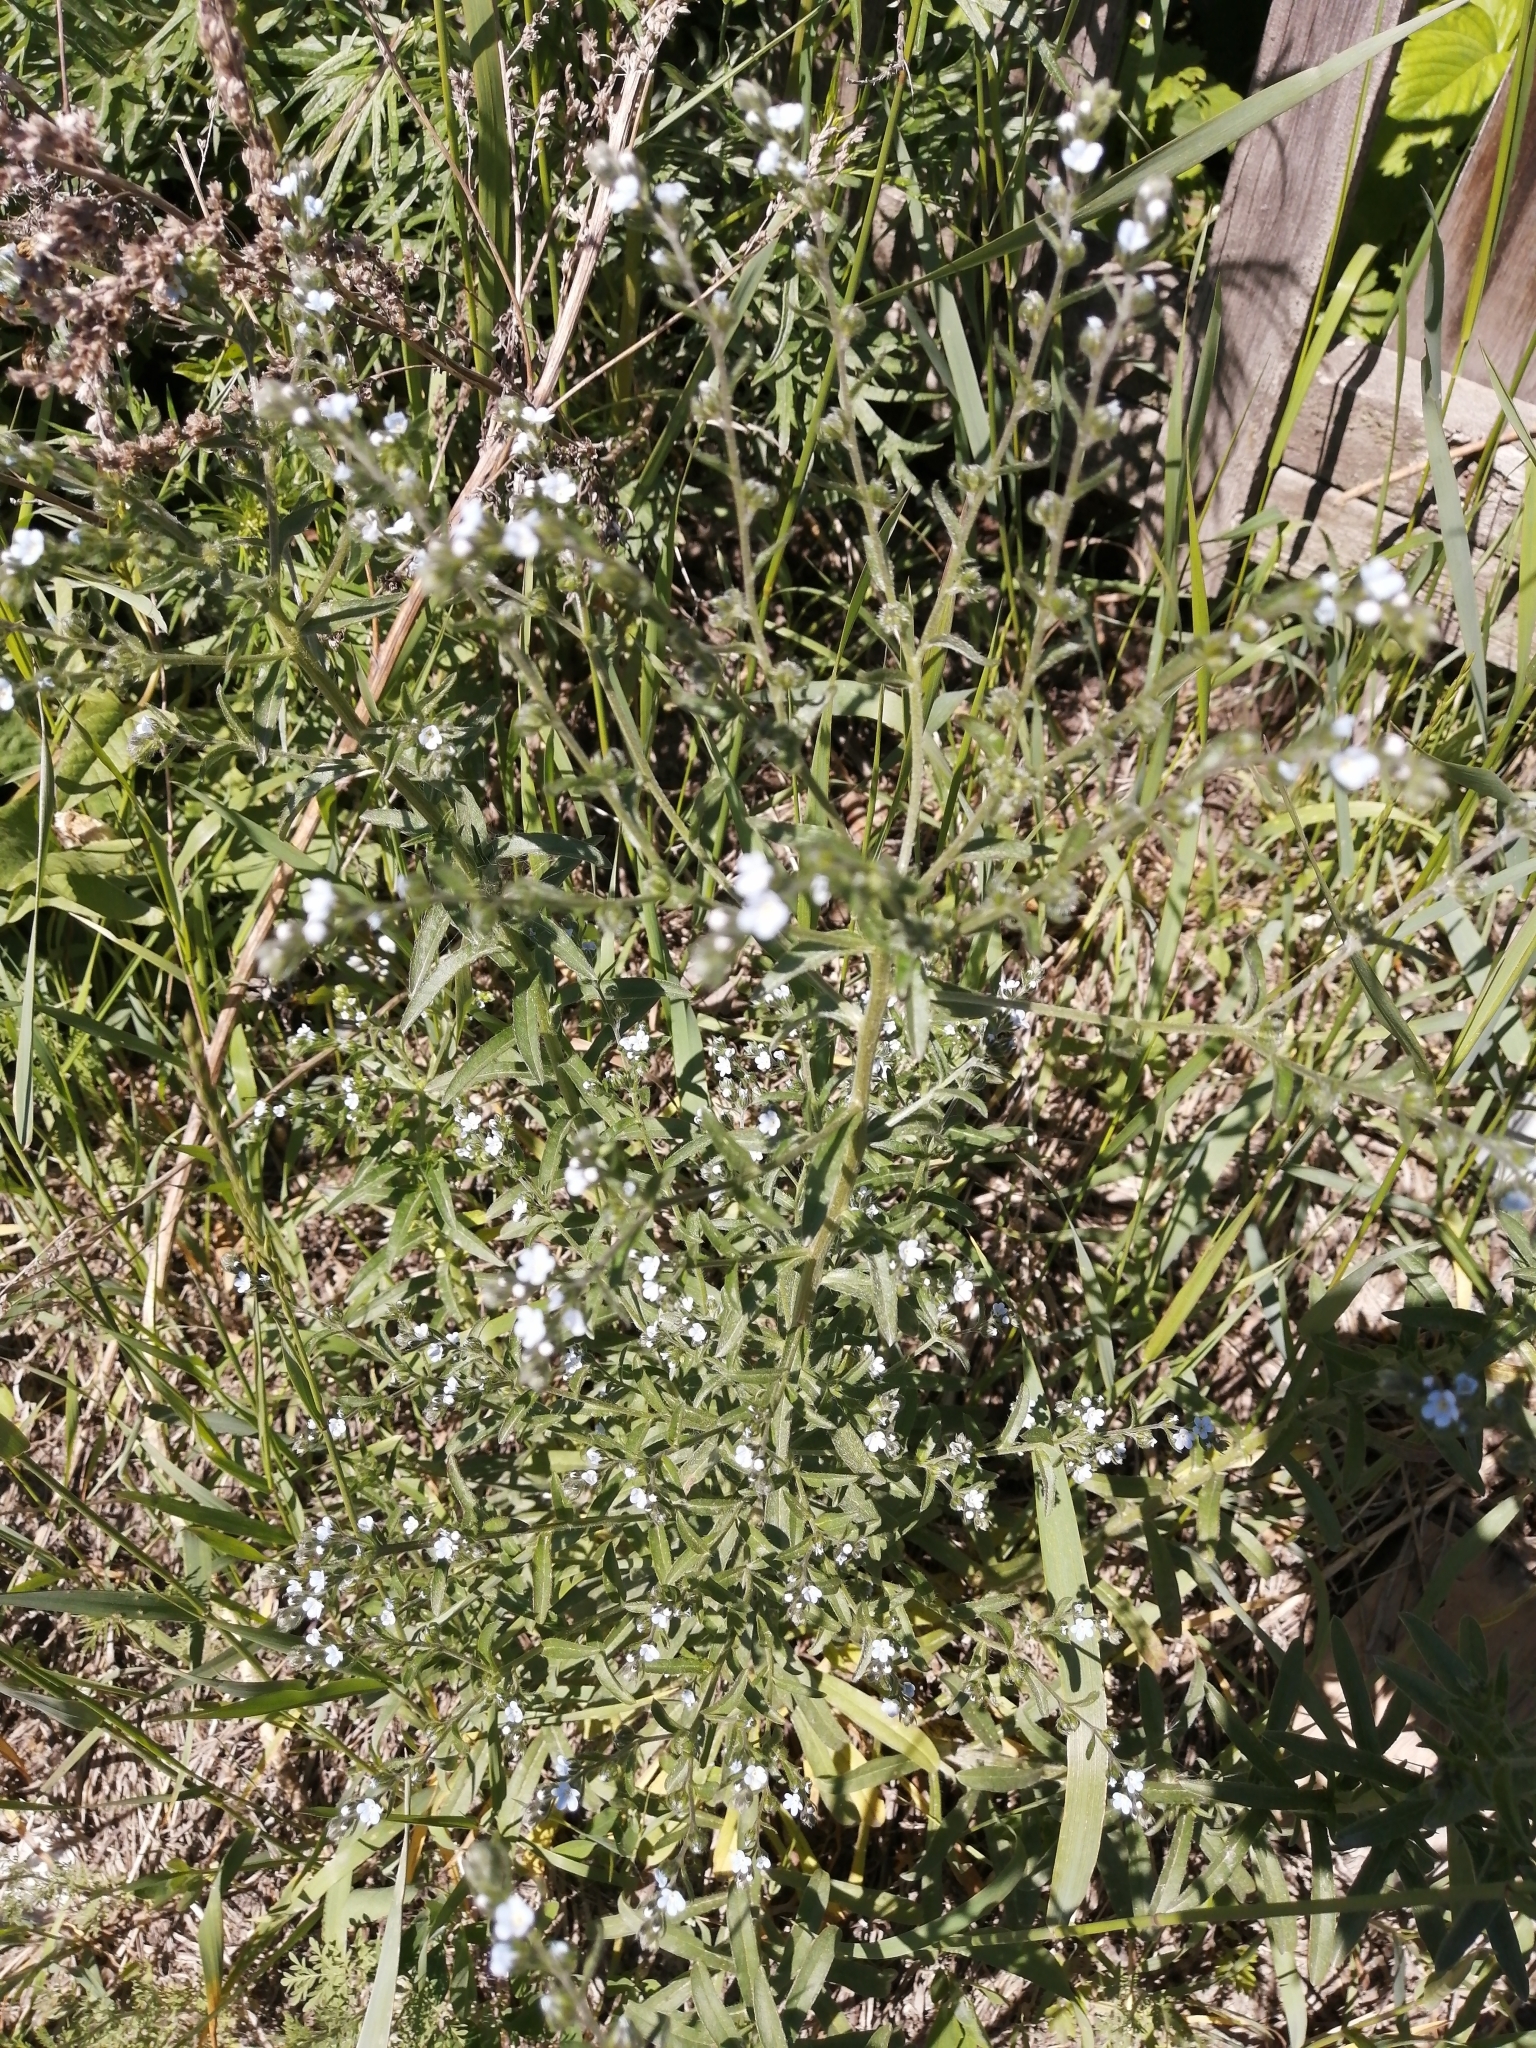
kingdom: Plantae
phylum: Tracheophyta
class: Magnoliopsida
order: Boraginales
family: Boraginaceae
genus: Lappula
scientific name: Lappula squarrosa
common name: European stickseed
